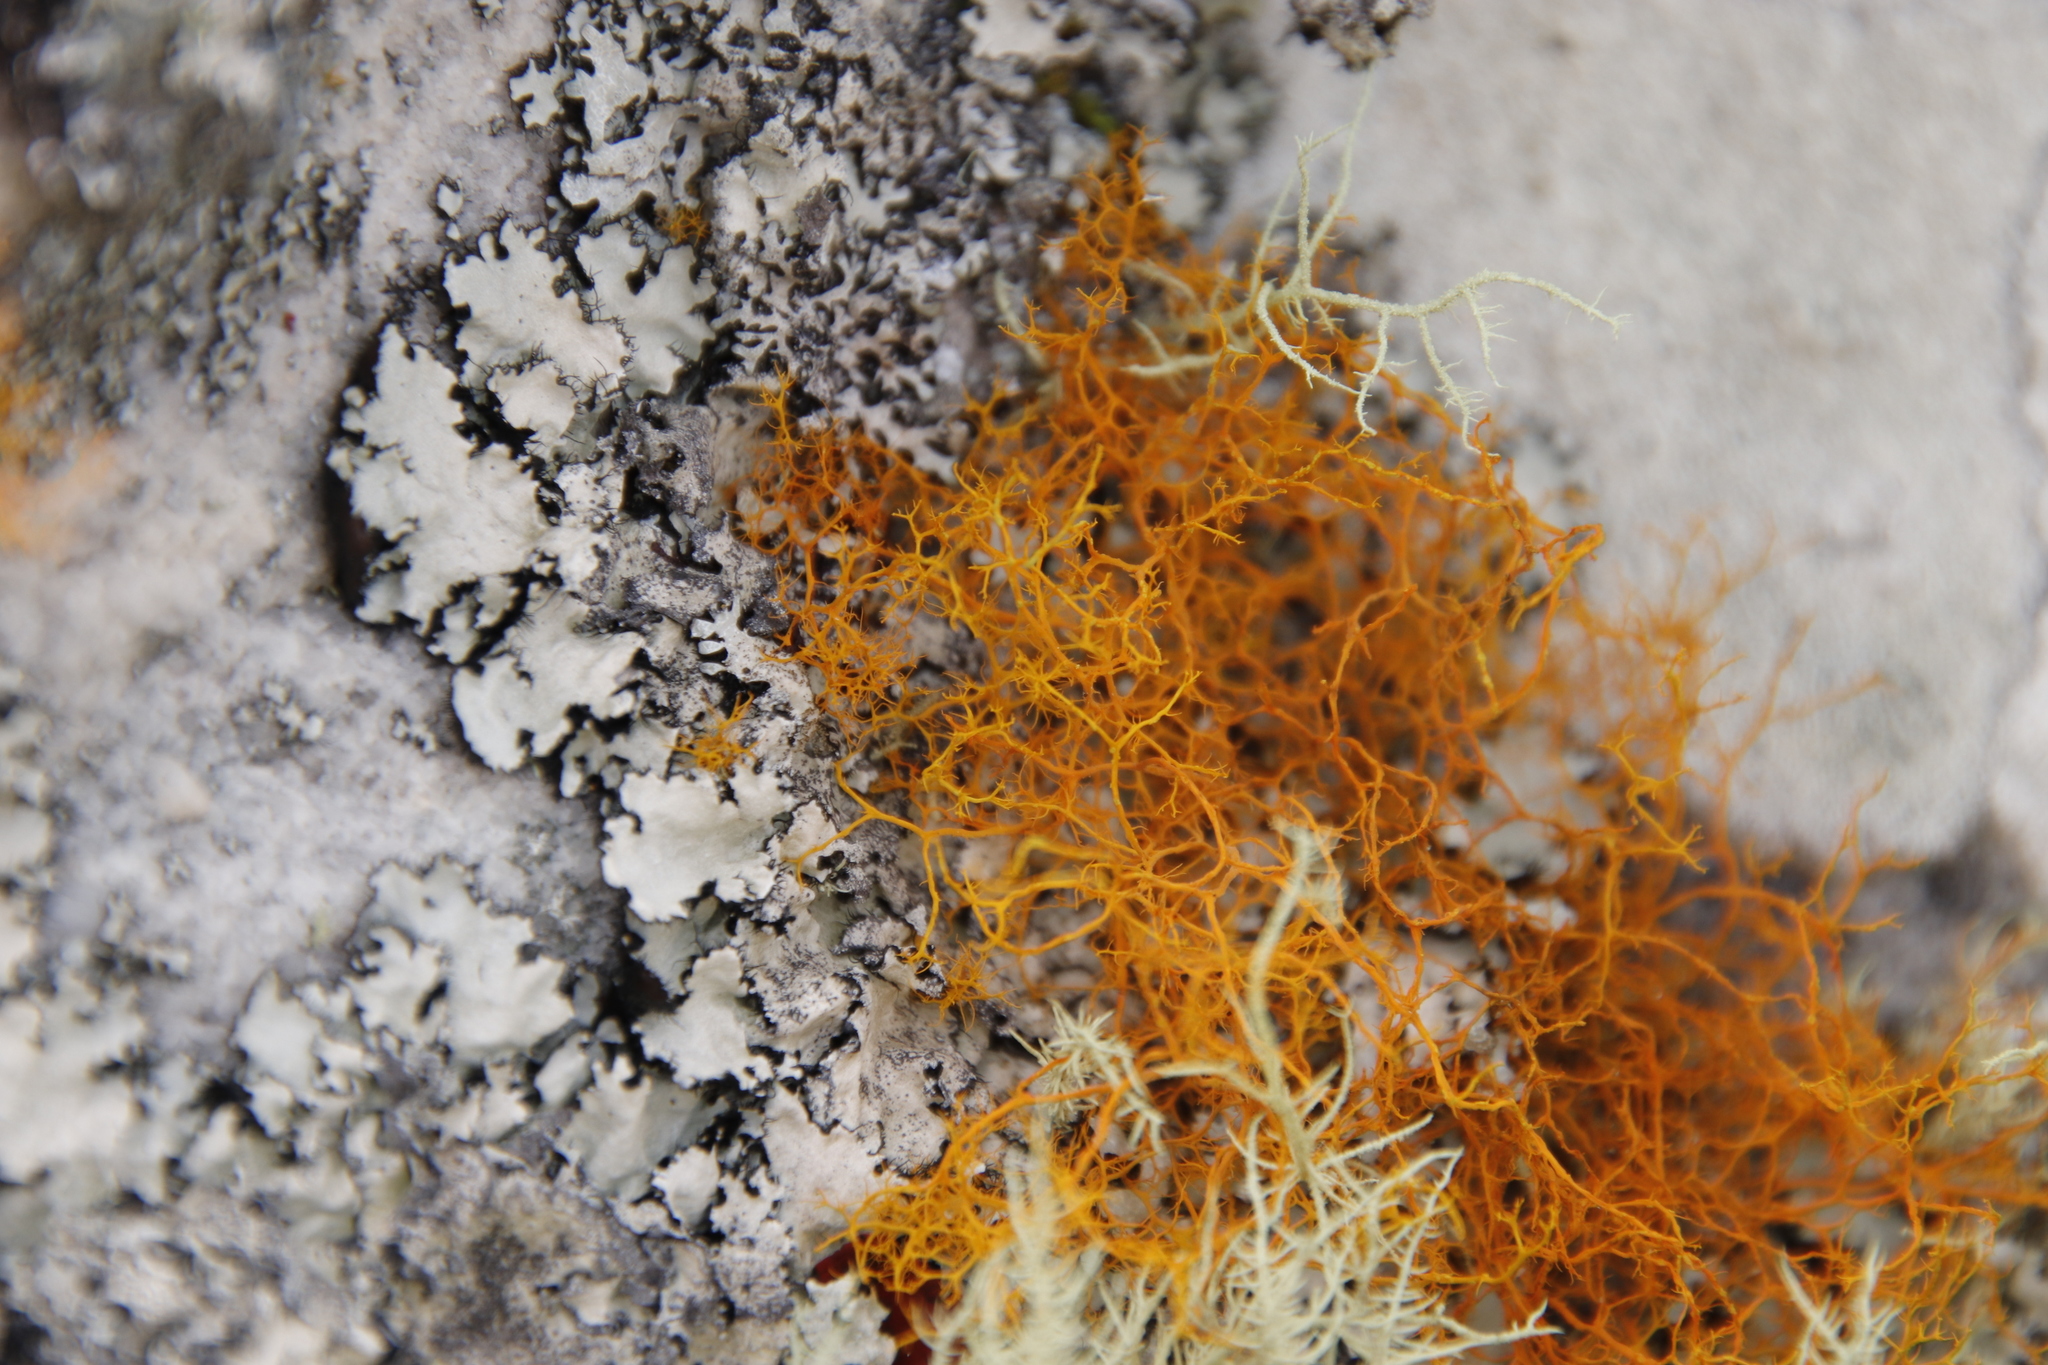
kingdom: Fungi
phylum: Ascomycota
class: Lecanoromycetes
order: Teloschistales
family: Teloschistaceae
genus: Teloschistes
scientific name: Teloschistes flavicans
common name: Golden hair-lichen
